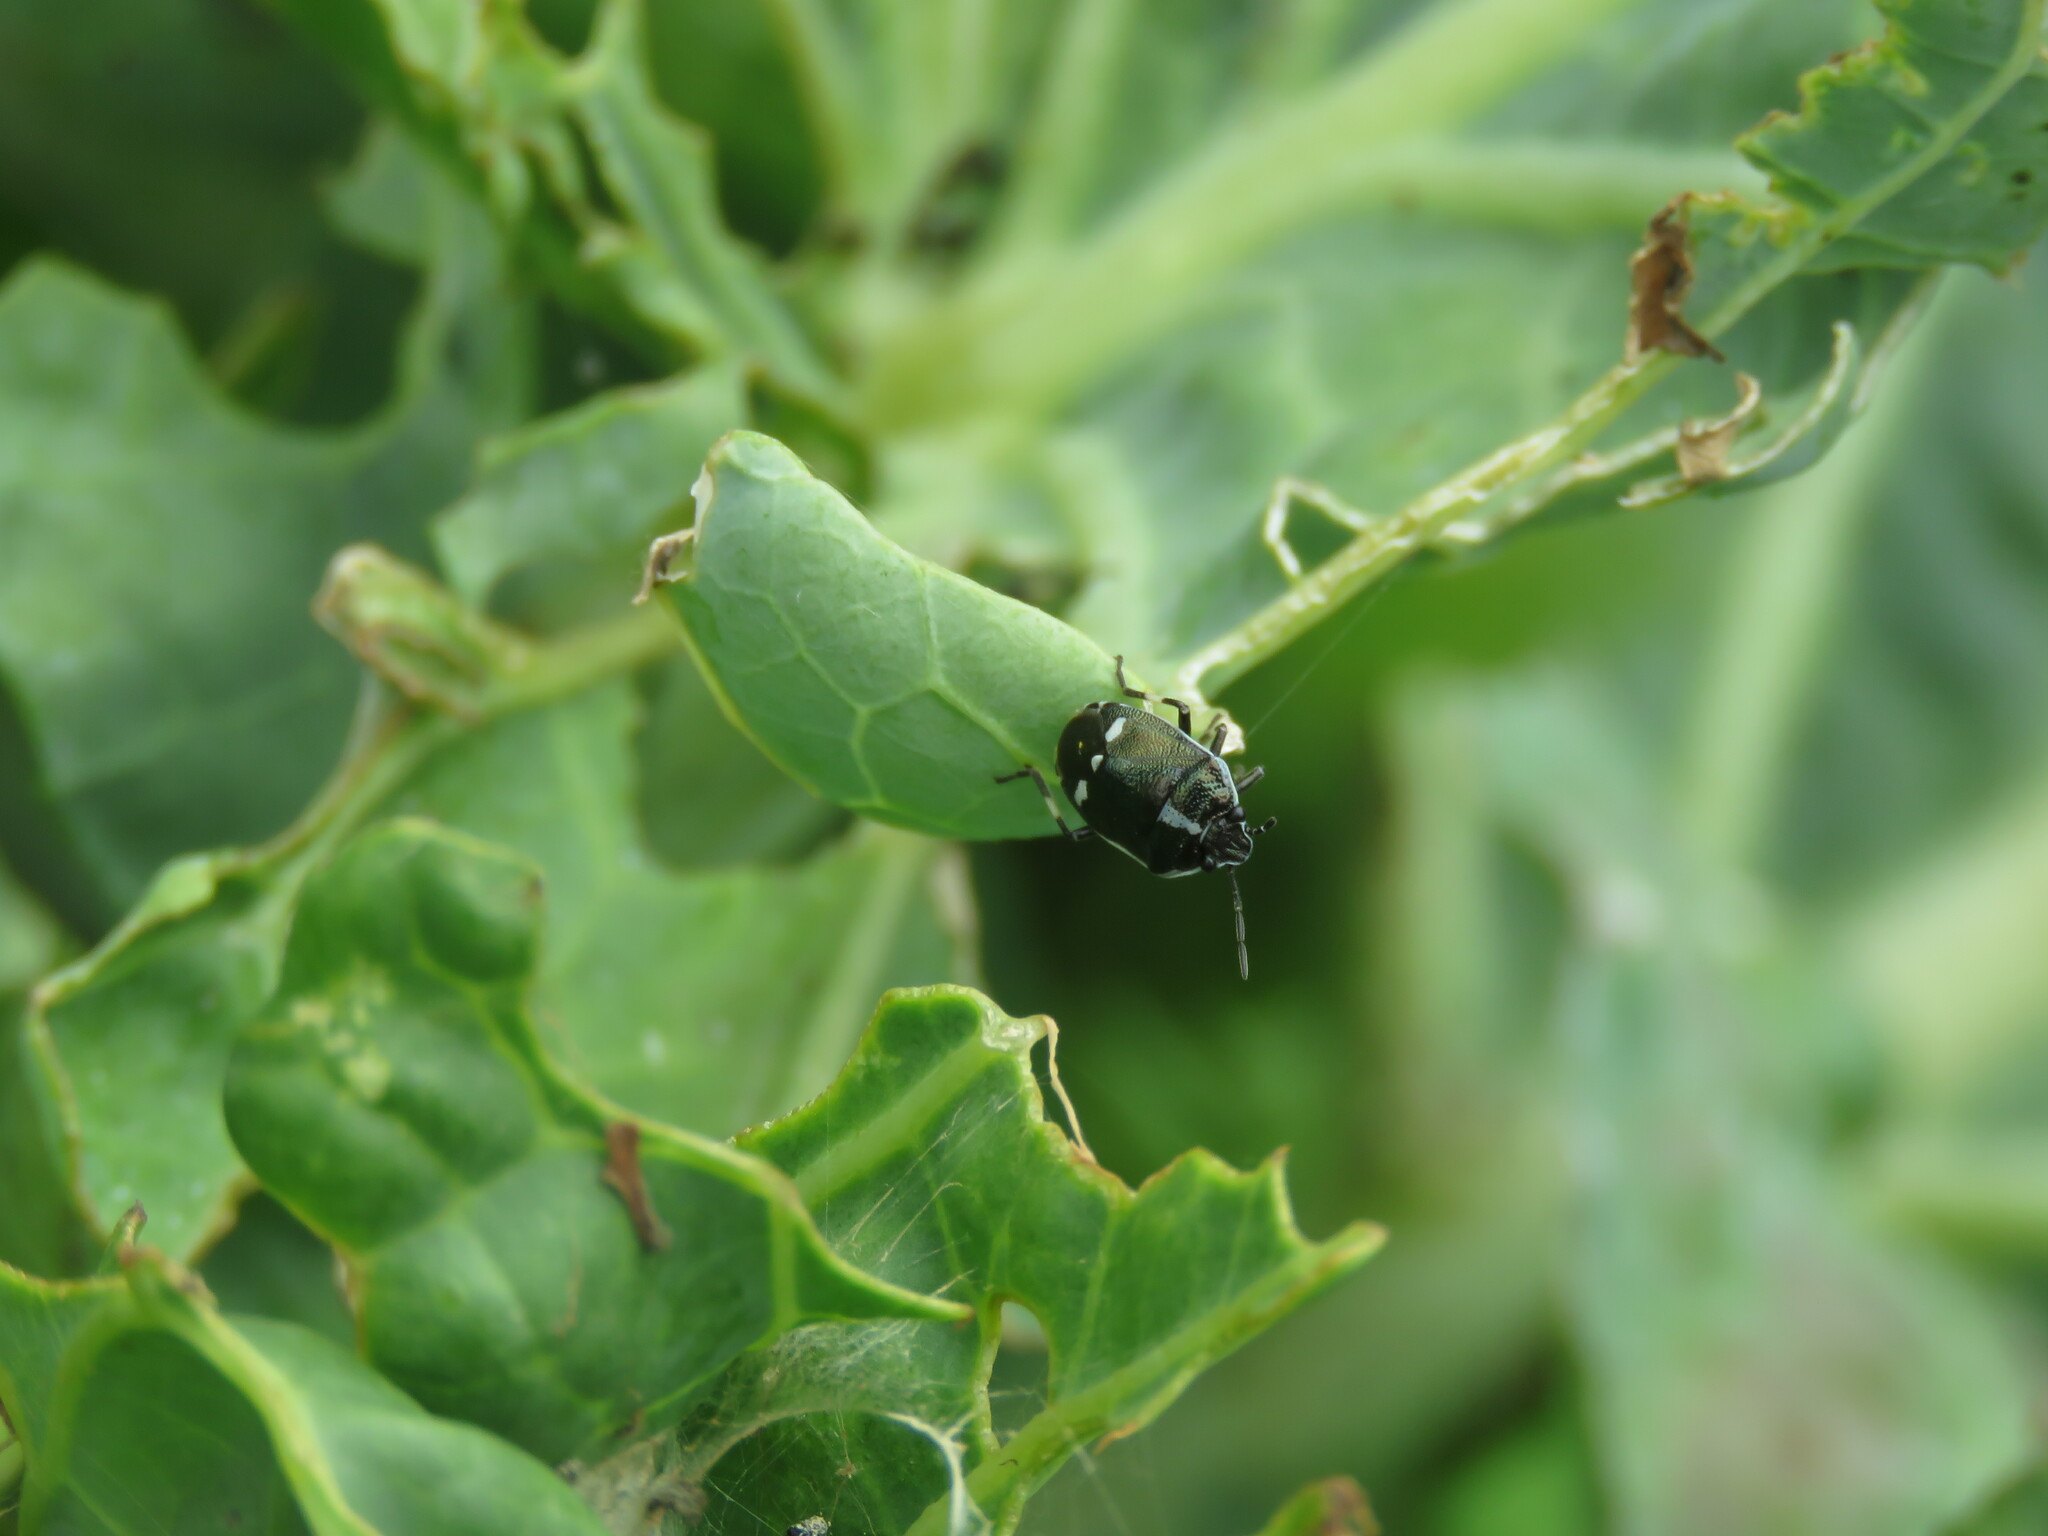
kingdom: Animalia
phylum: Arthropoda
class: Insecta
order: Hemiptera
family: Pentatomidae
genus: Eurydema
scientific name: Eurydema oleracea
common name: Cabbage bug
